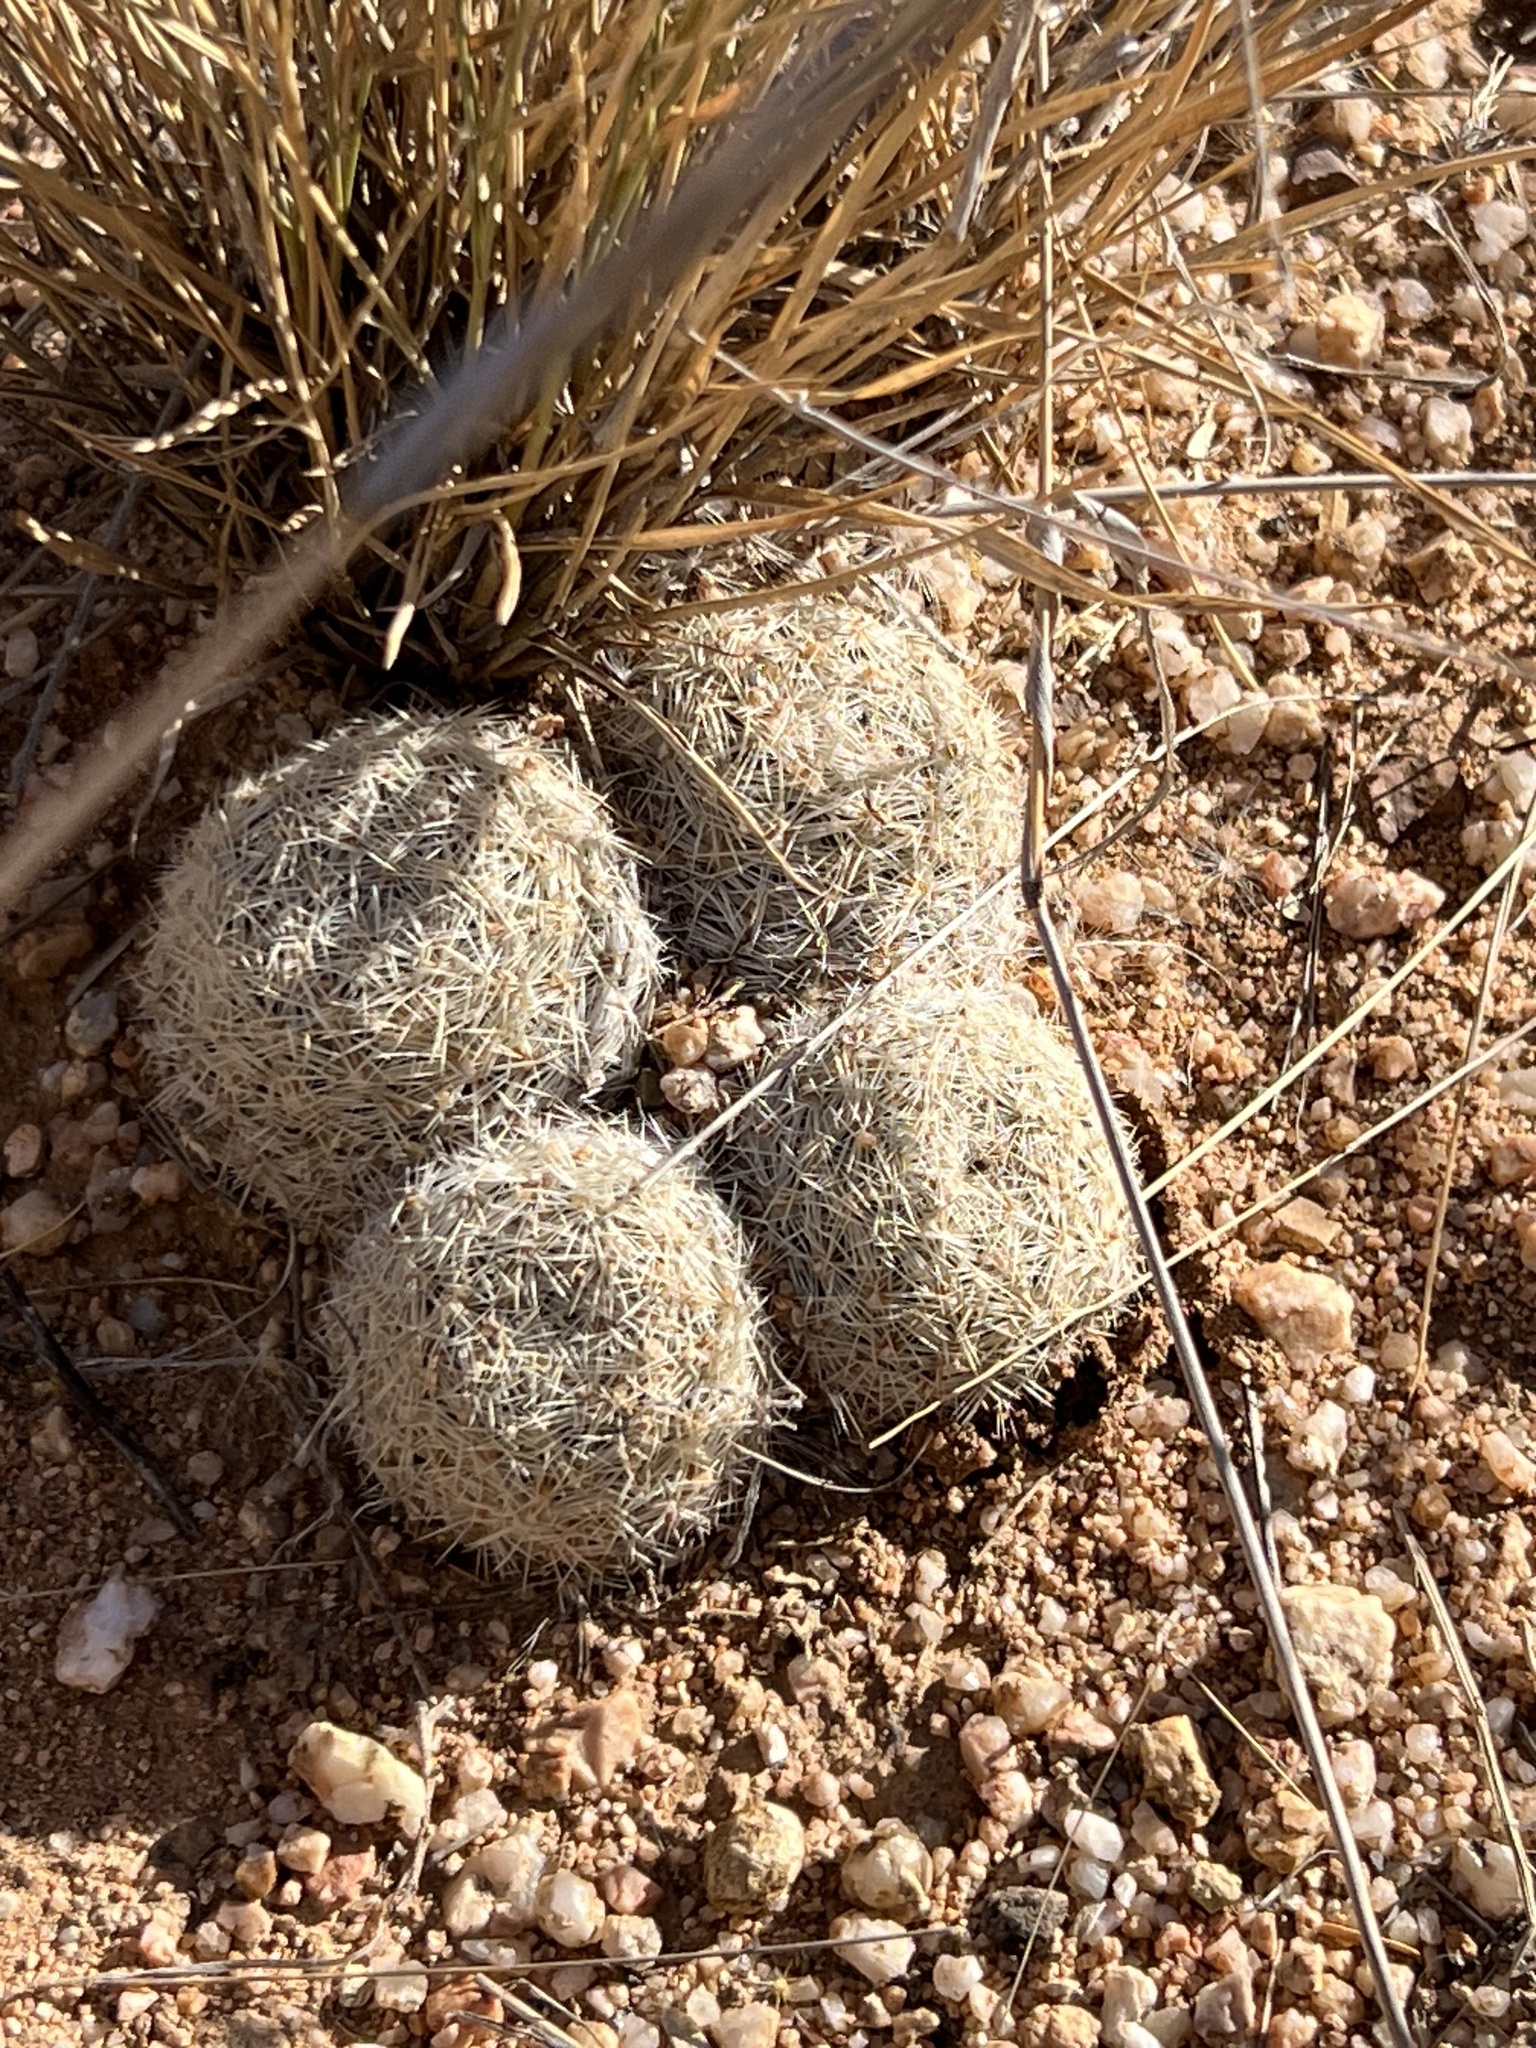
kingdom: Plantae
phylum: Tracheophyta
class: Magnoliopsida
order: Caryophyllales
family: Cactaceae
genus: Pelecyphora
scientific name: Pelecyphora vivipara
